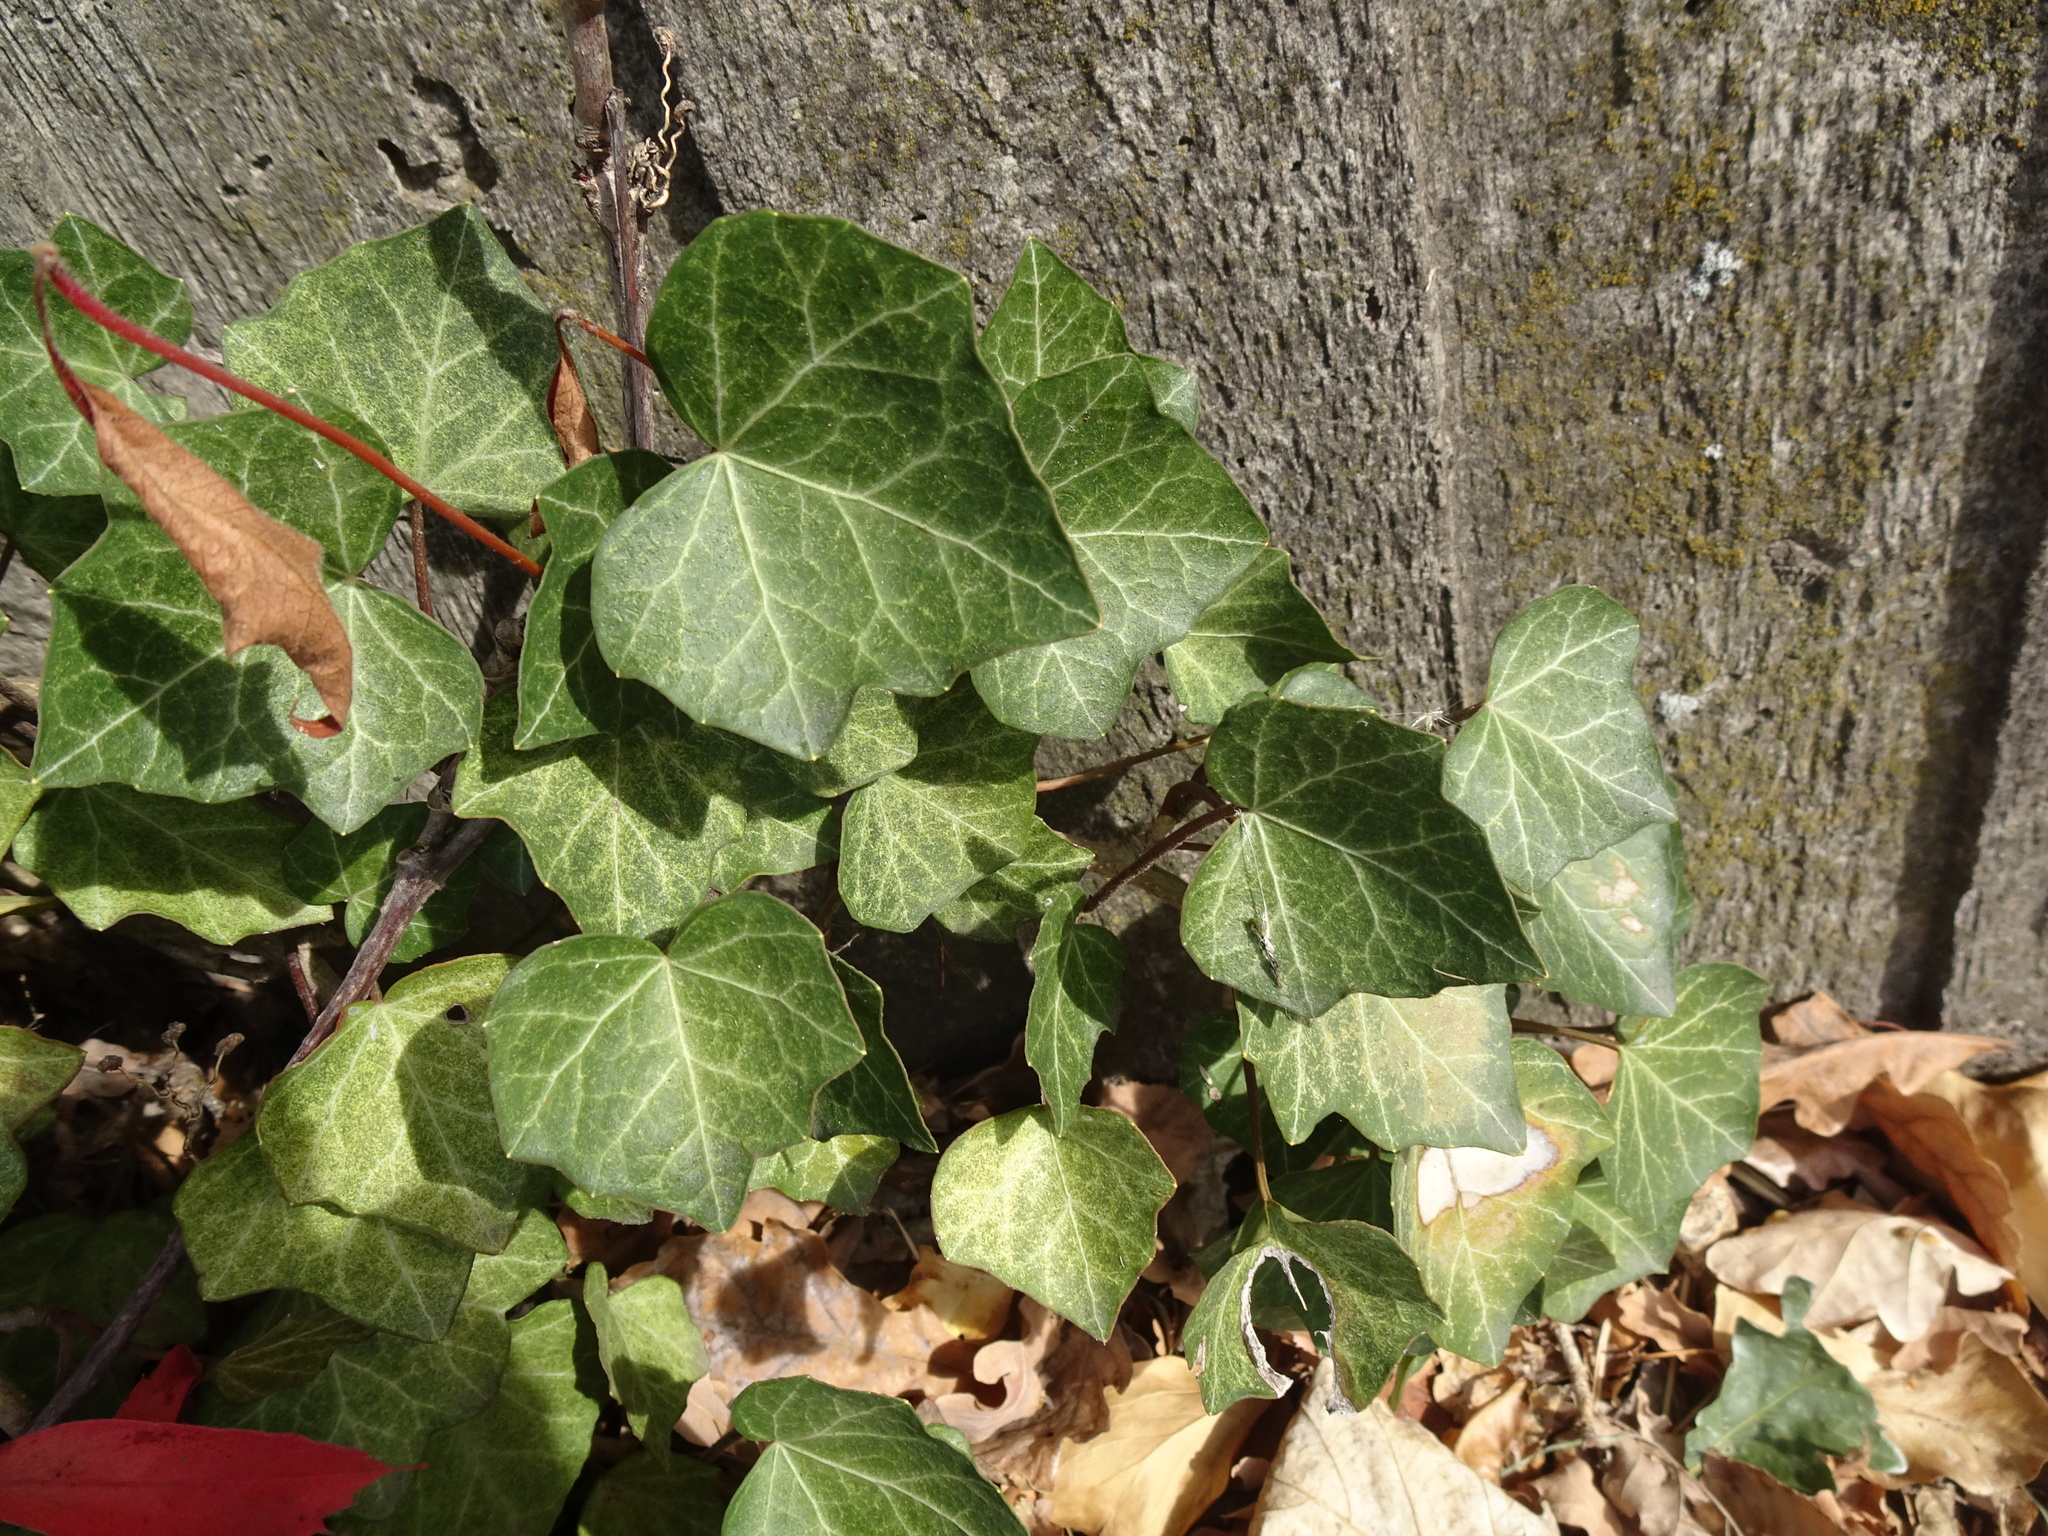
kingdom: Plantae
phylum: Tracheophyta
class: Magnoliopsida
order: Apiales
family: Araliaceae
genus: Hedera
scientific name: Hedera helix
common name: Ivy
